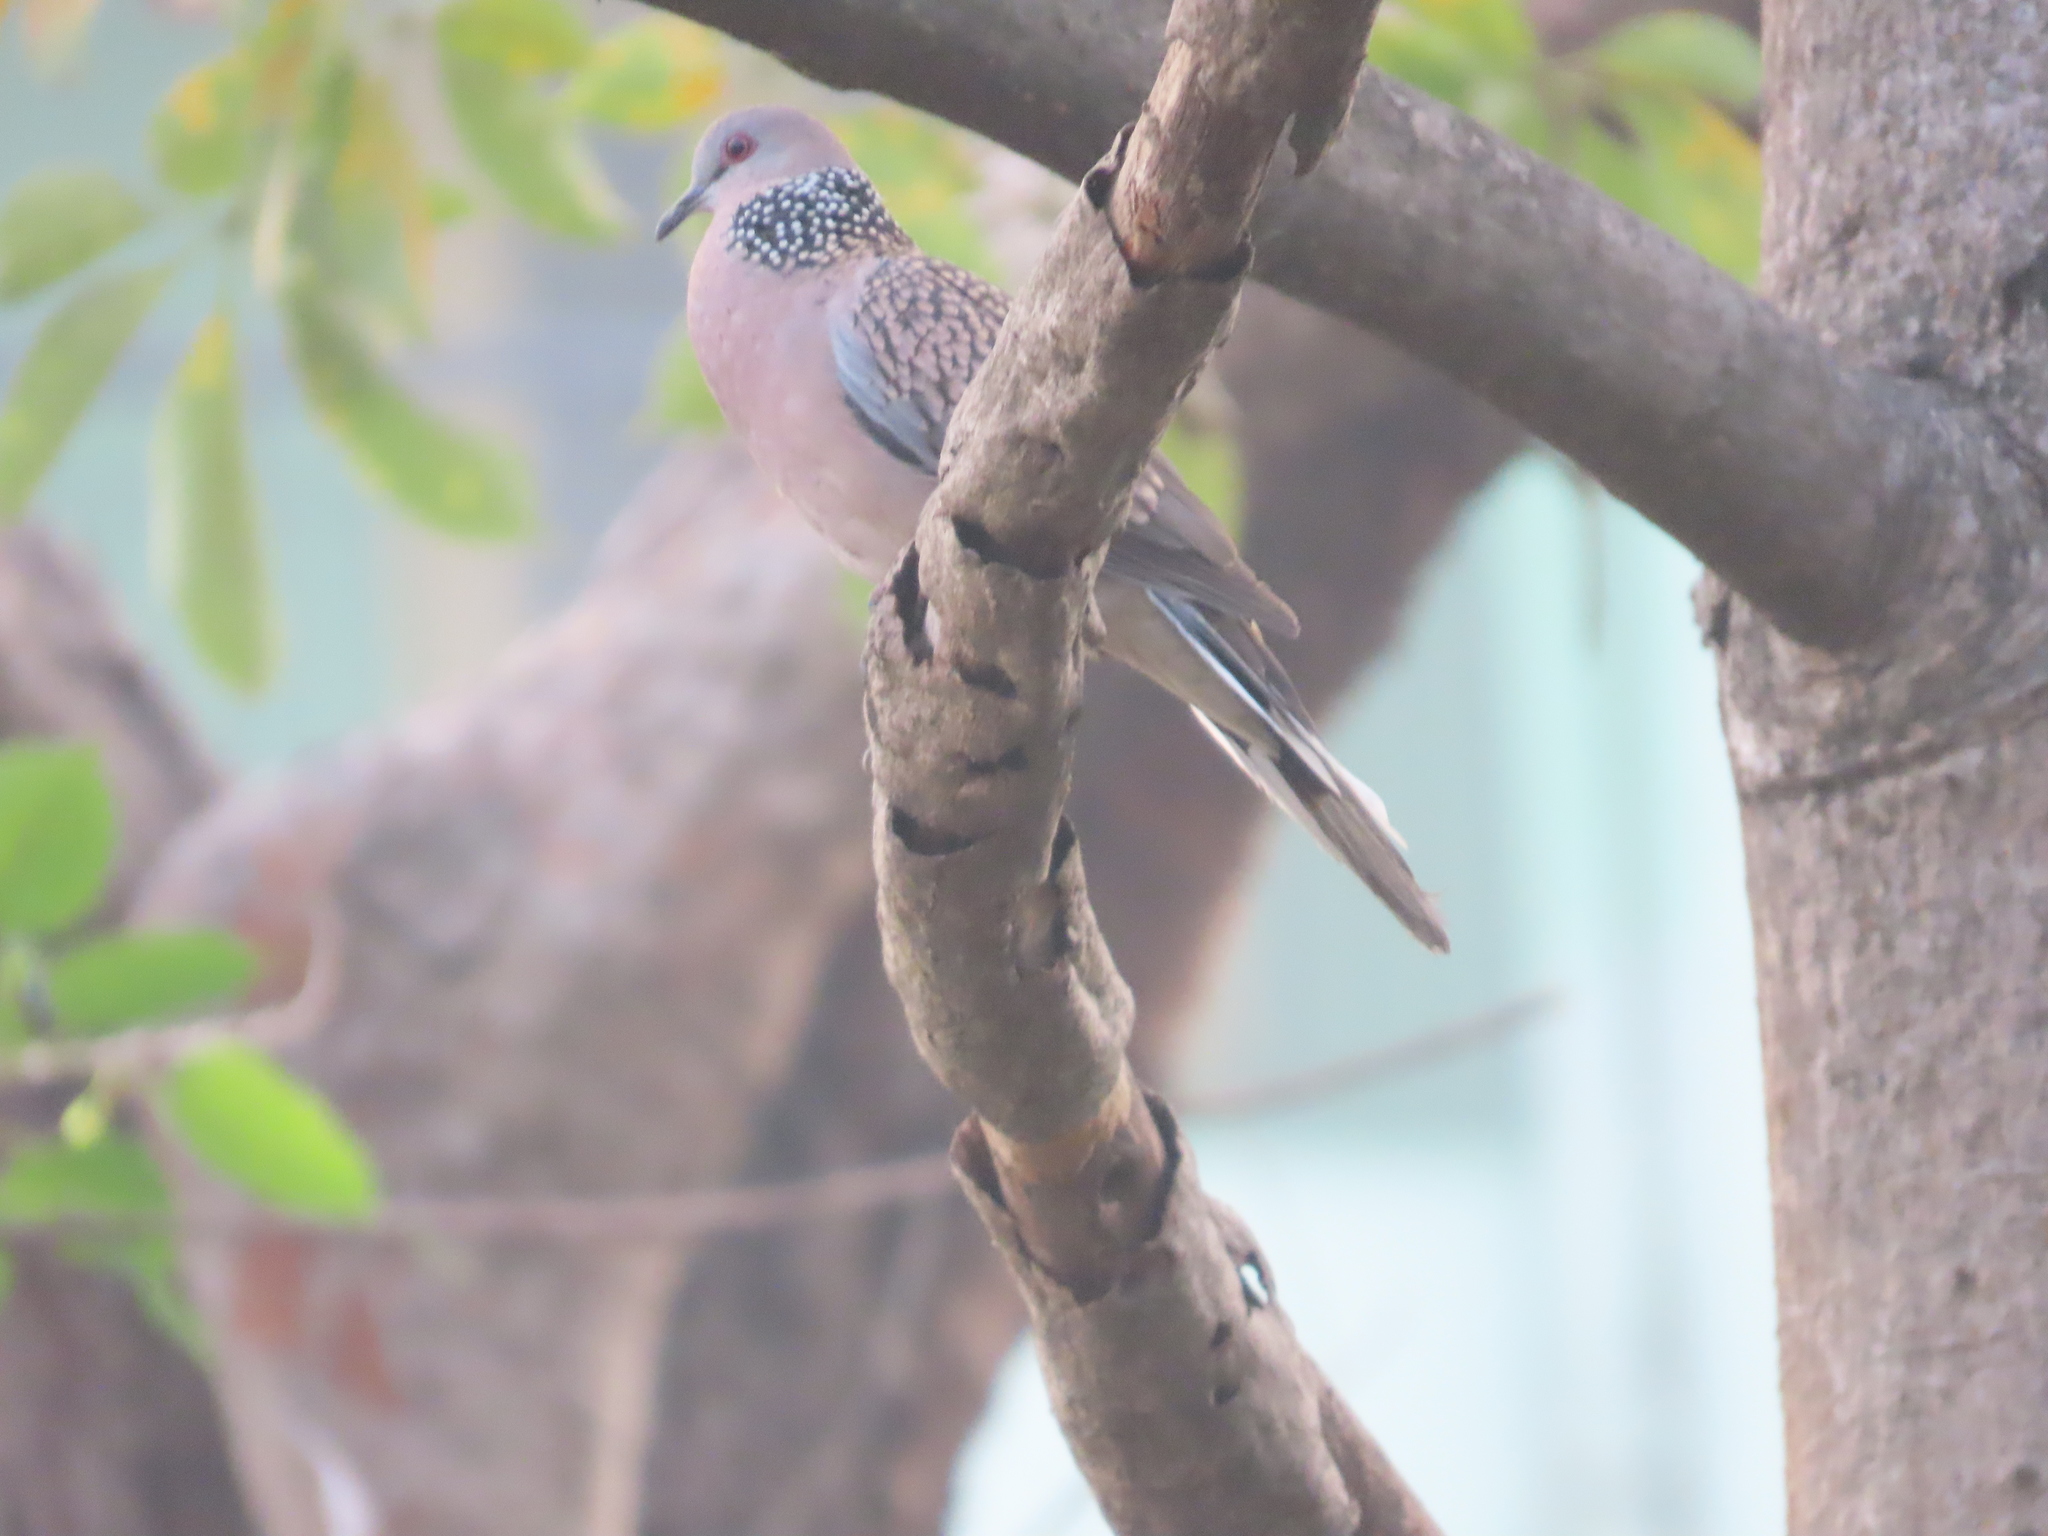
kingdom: Animalia
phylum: Chordata
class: Aves
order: Columbiformes
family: Columbidae
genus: Spilopelia
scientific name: Spilopelia chinensis
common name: Spotted dove
